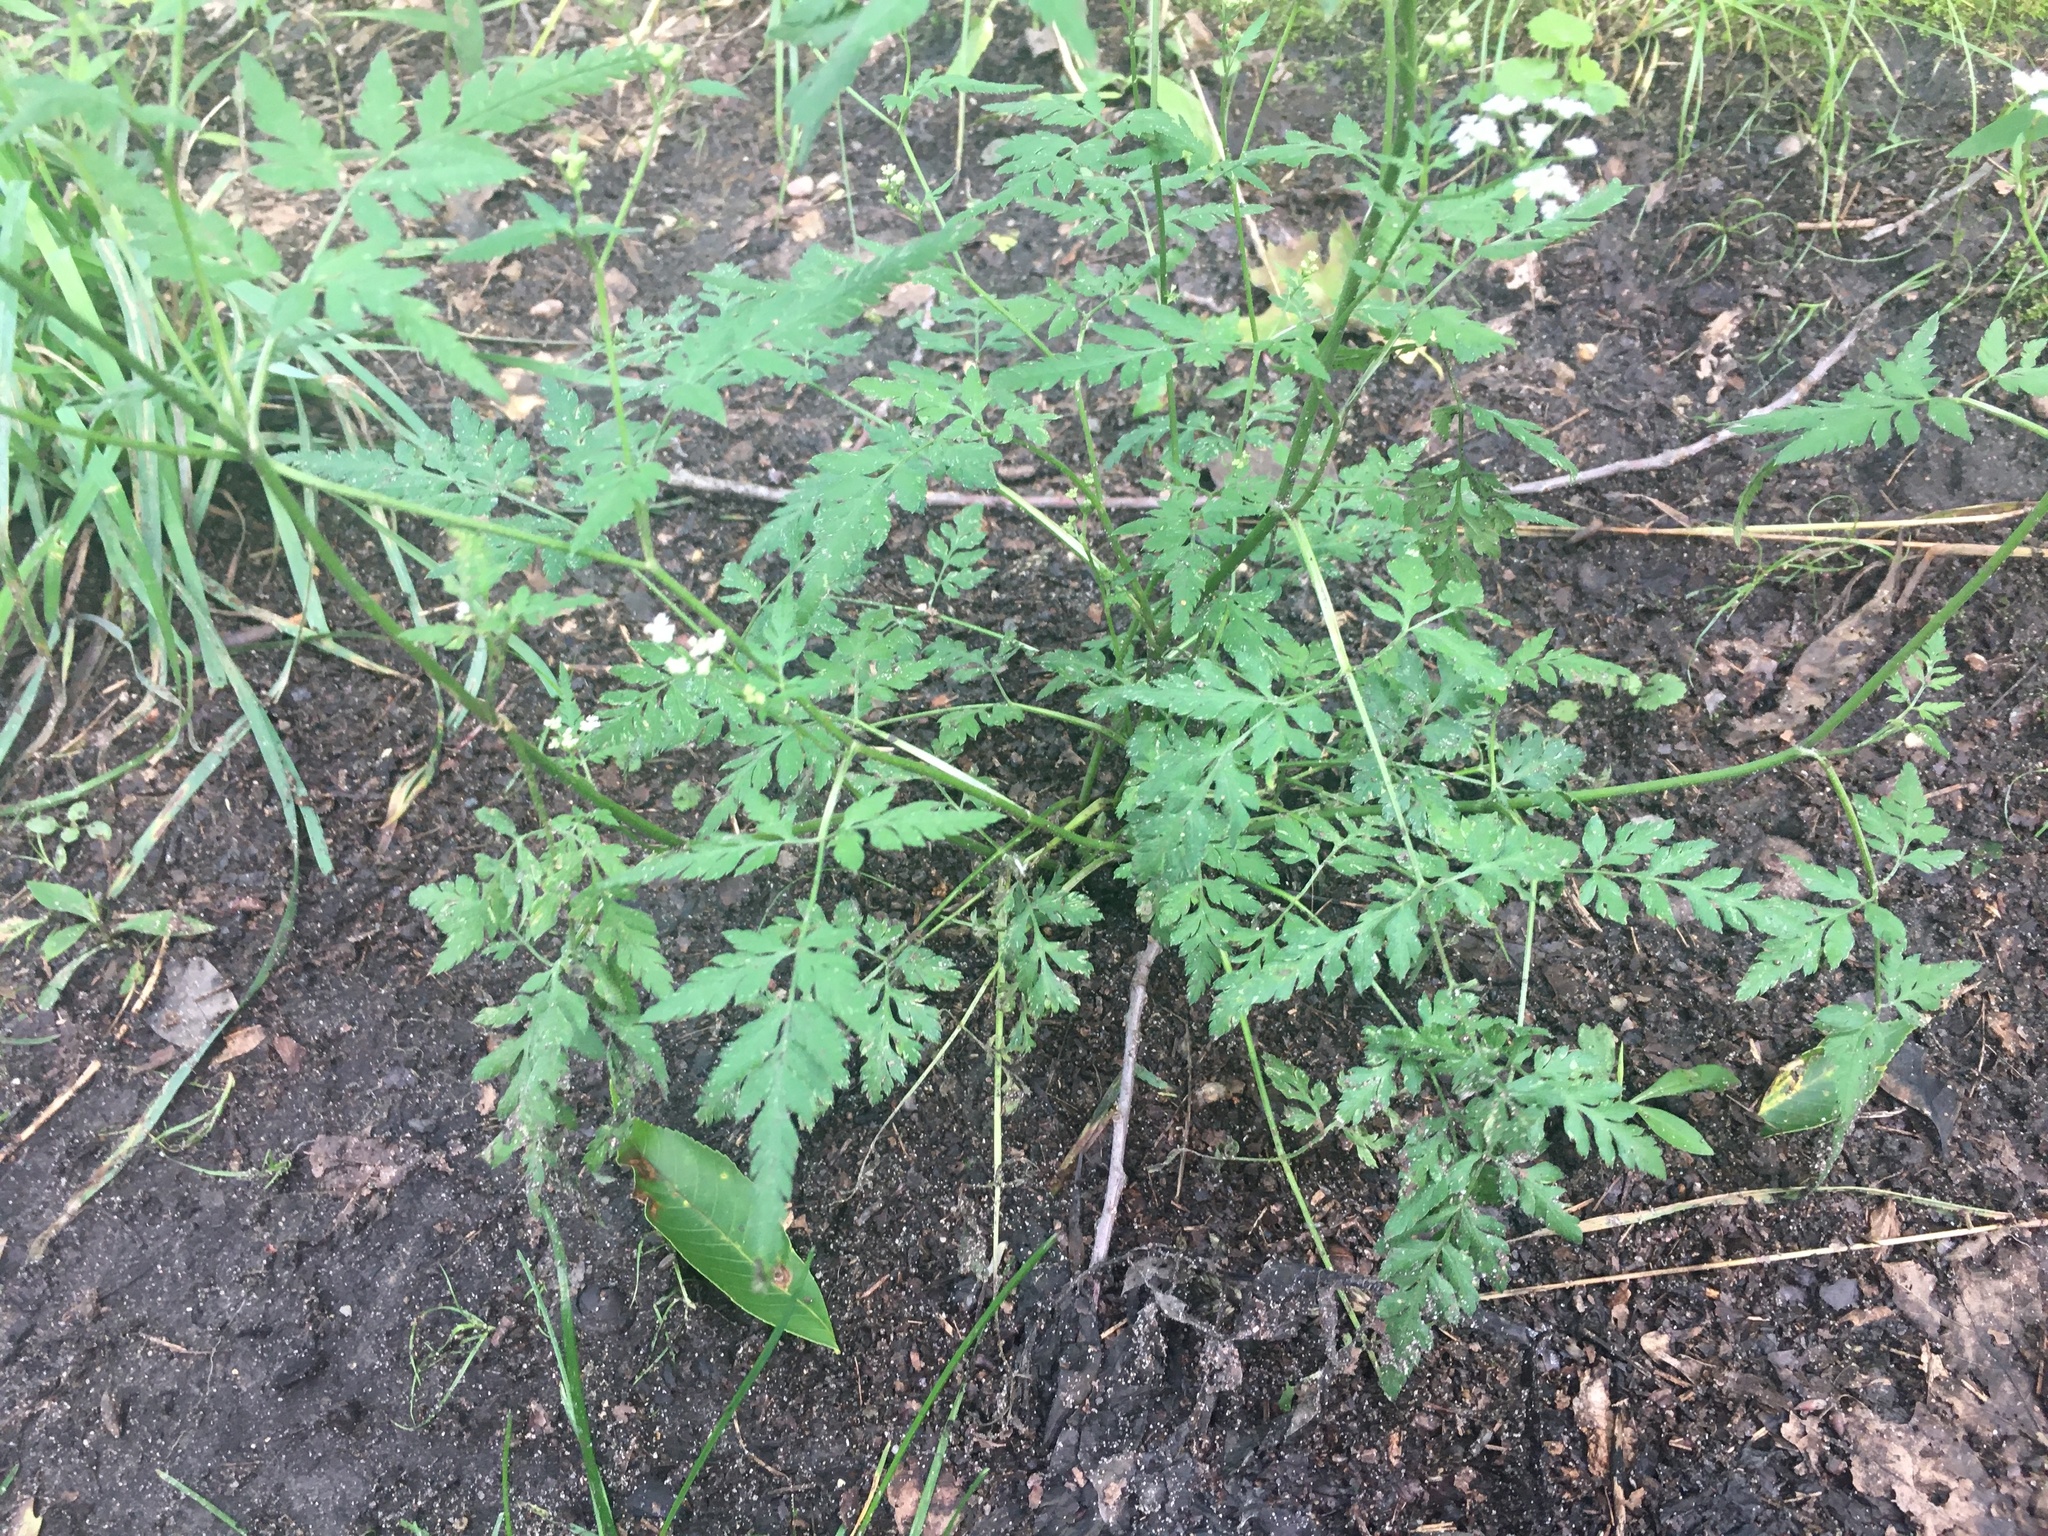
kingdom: Plantae
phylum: Tracheophyta
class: Magnoliopsida
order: Apiales
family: Apiaceae
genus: Torilis
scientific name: Torilis japonica
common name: Upright hedge-parsley
